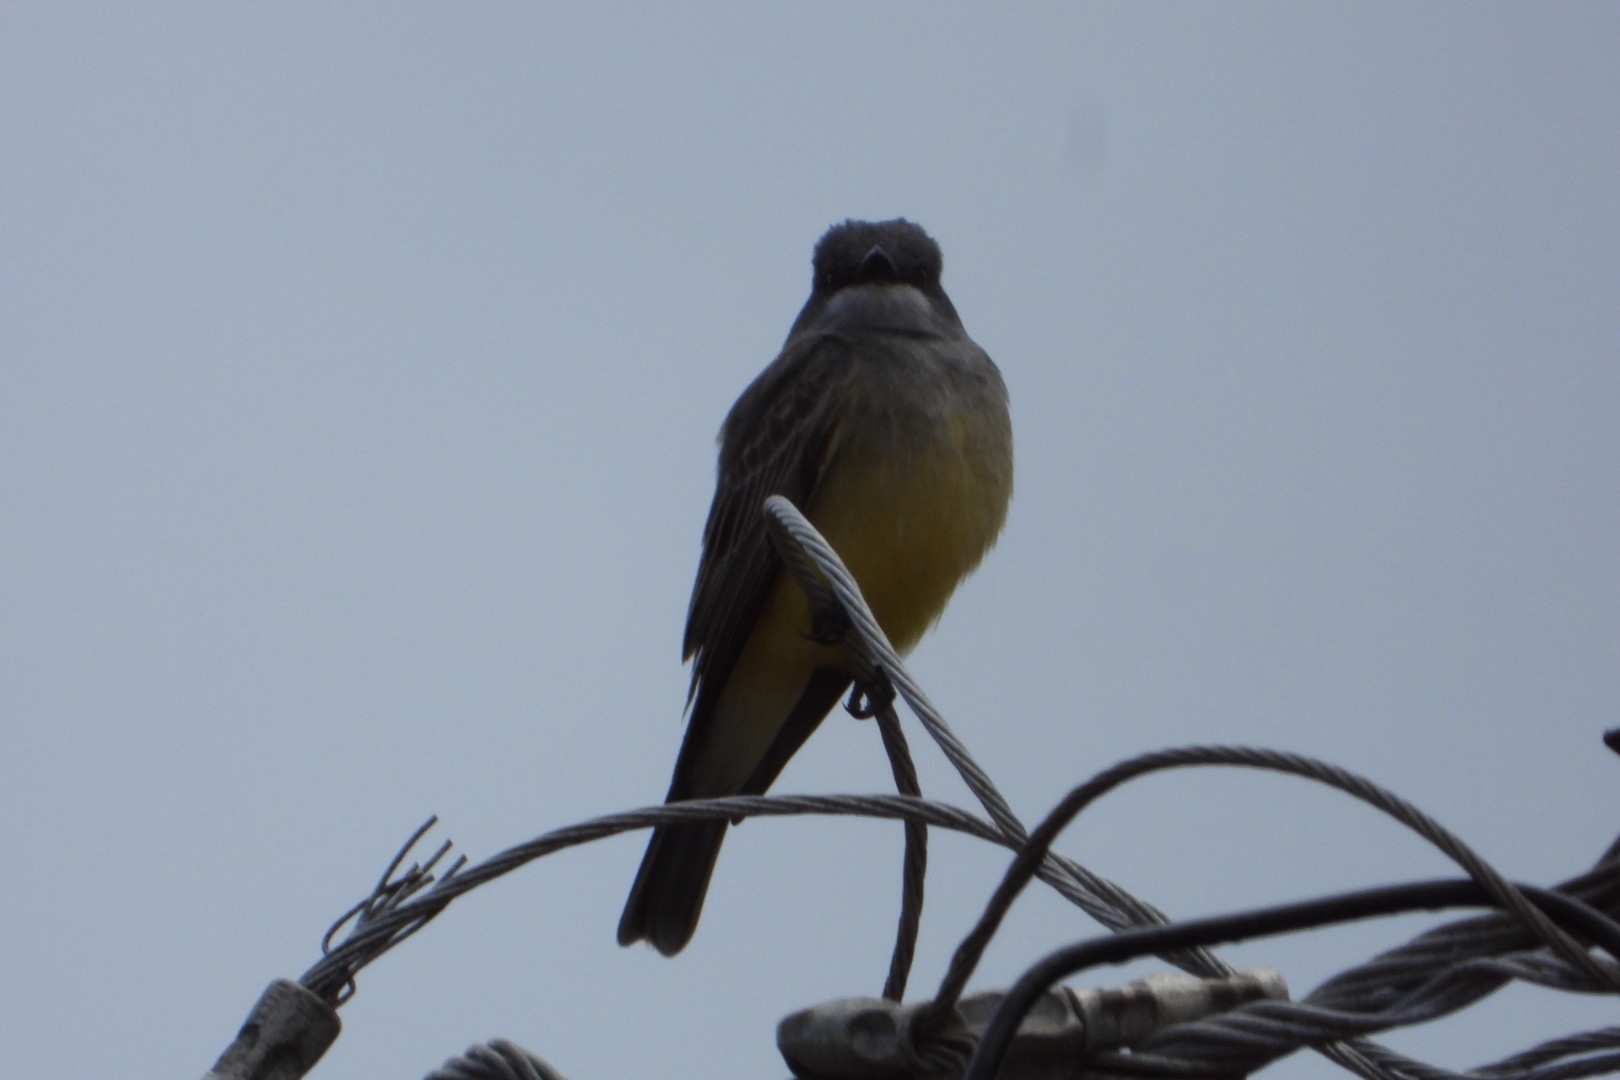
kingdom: Animalia
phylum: Chordata
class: Aves
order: Passeriformes
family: Tyrannidae
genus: Tyrannus
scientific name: Tyrannus vociferans
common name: Cassin's kingbird
